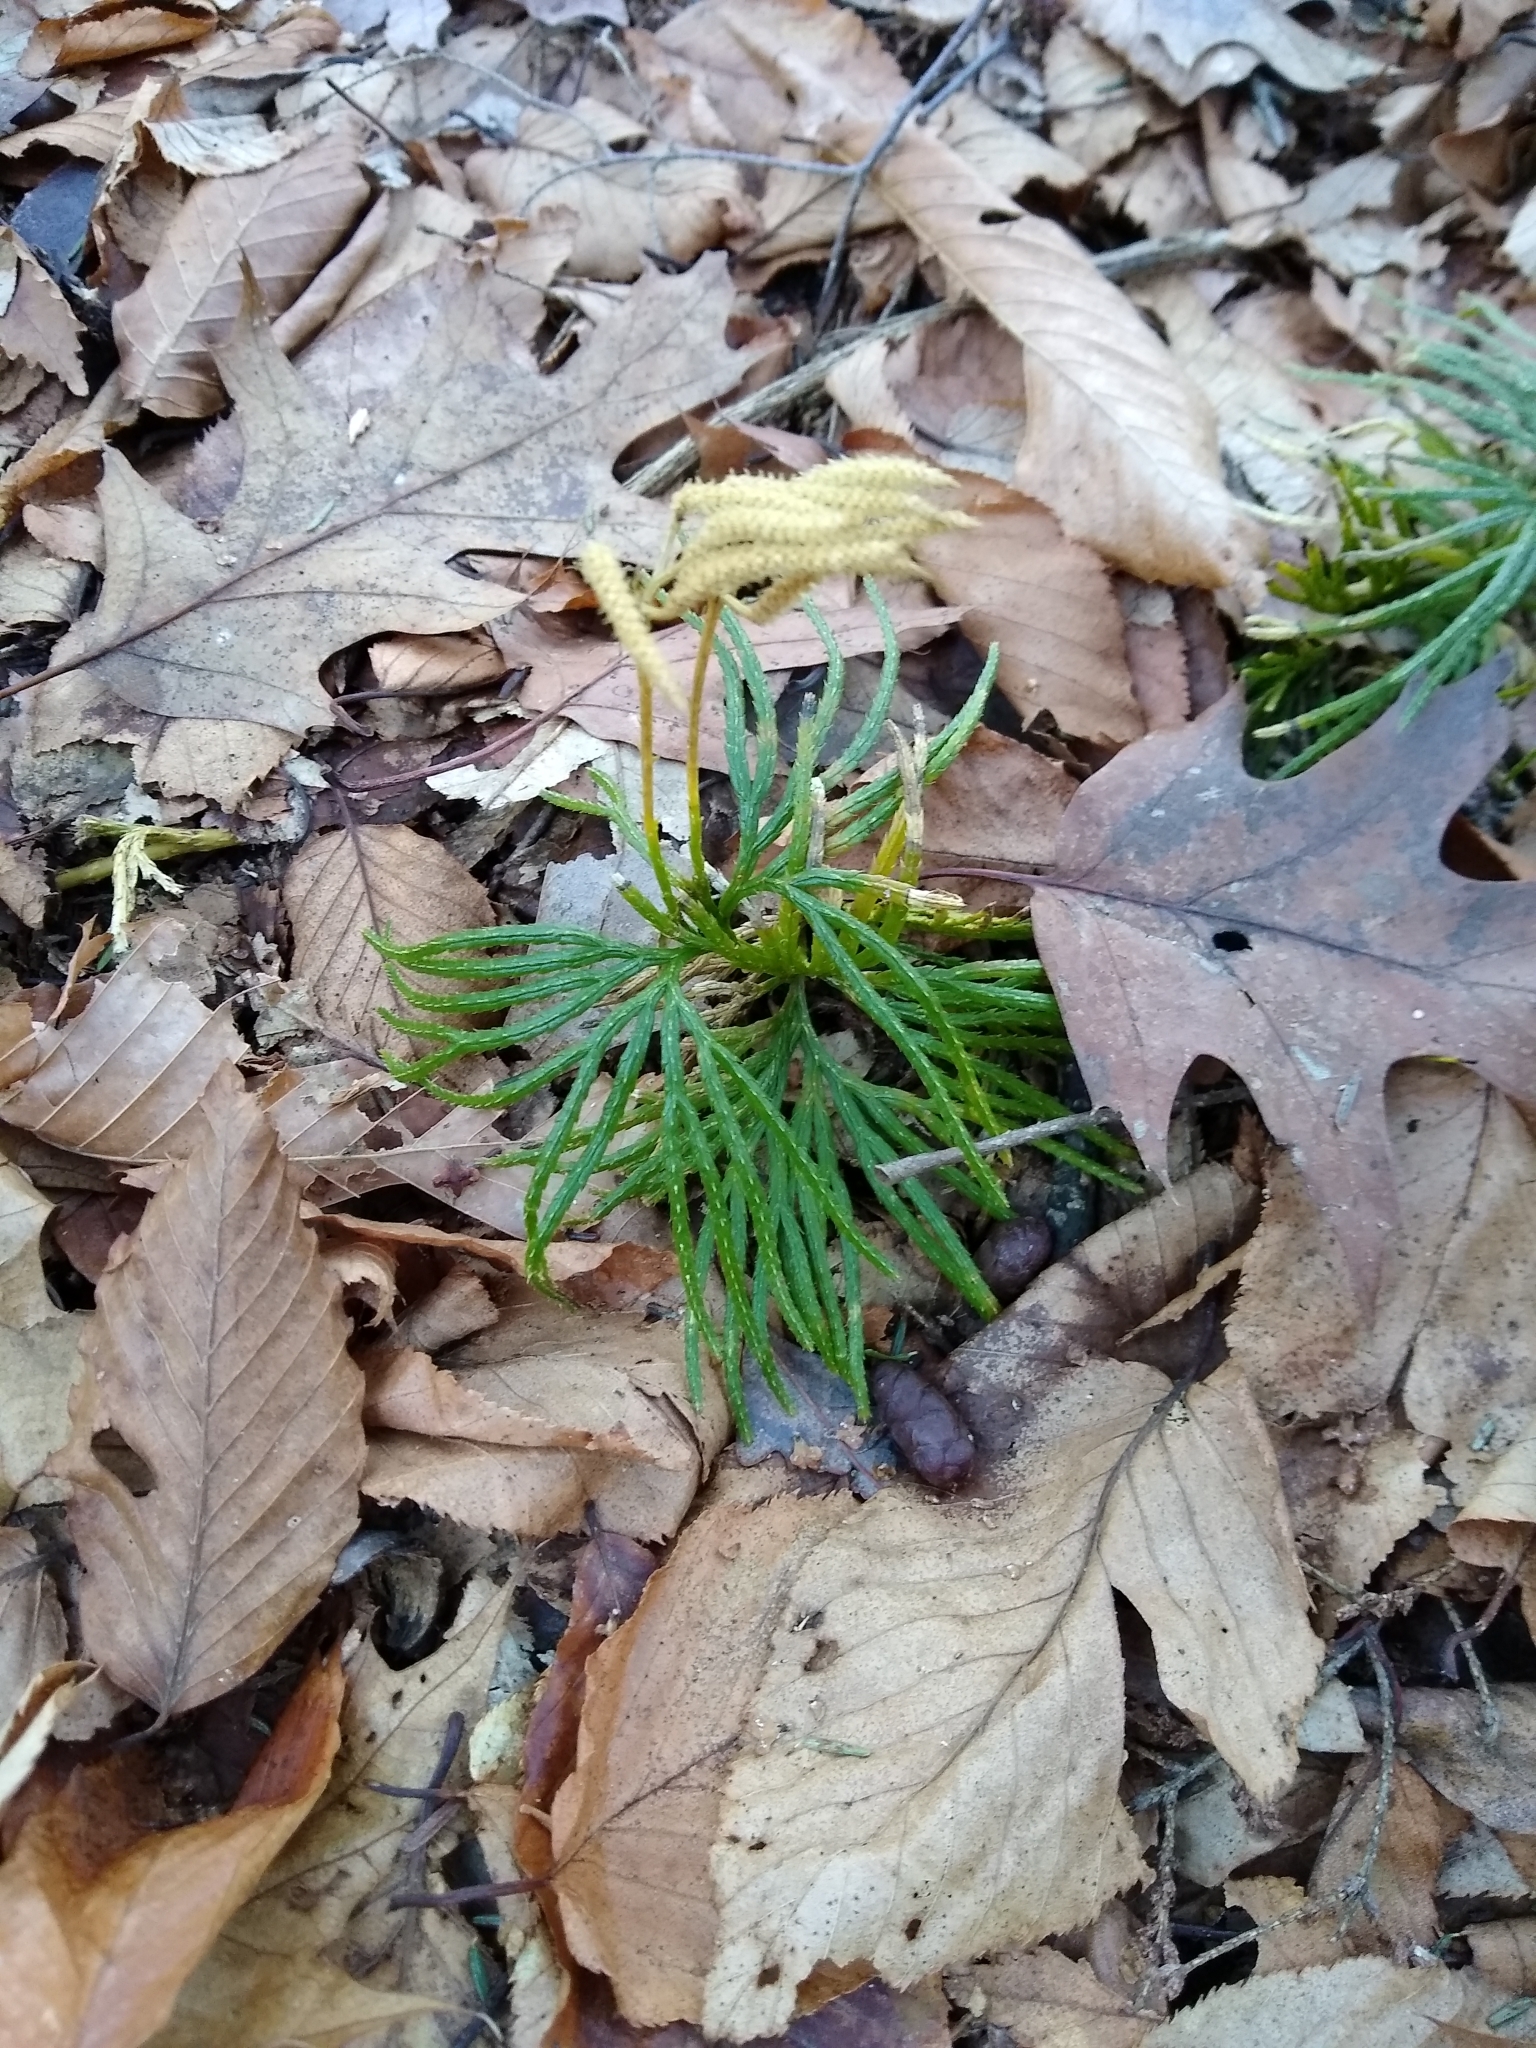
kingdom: Plantae
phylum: Tracheophyta
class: Lycopodiopsida
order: Lycopodiales
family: Lycopodiaceae
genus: Diphasiastrum
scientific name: Diphasiastrum digitatum
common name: Southern running-pine
